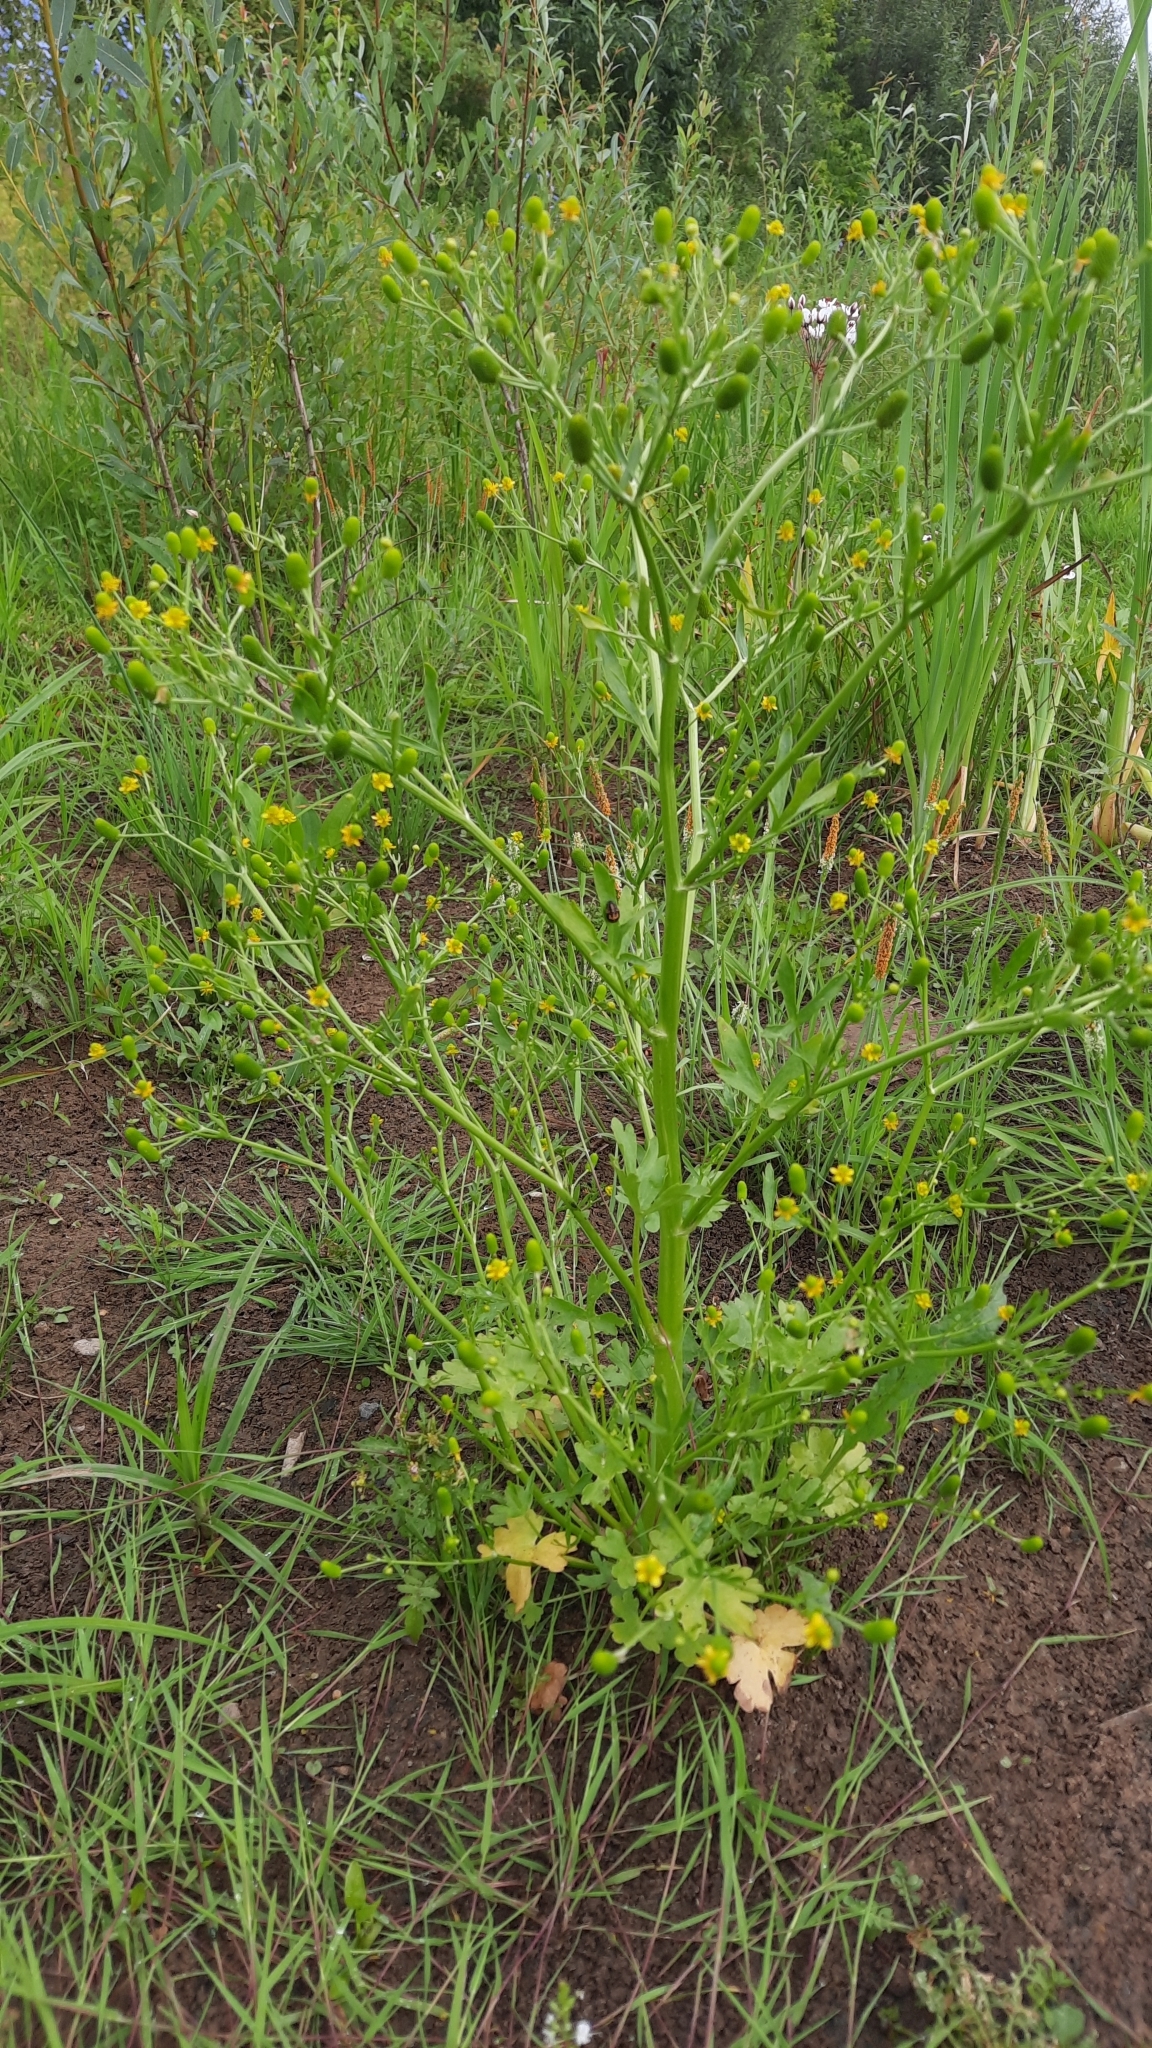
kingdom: Plantae
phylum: Tracheophyta
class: Magnoliopsida
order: Ranunculales
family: Ranunculaceae
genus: Ranunculus
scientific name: Ranunculus sceleratus
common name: Celery-leaved buttercup
